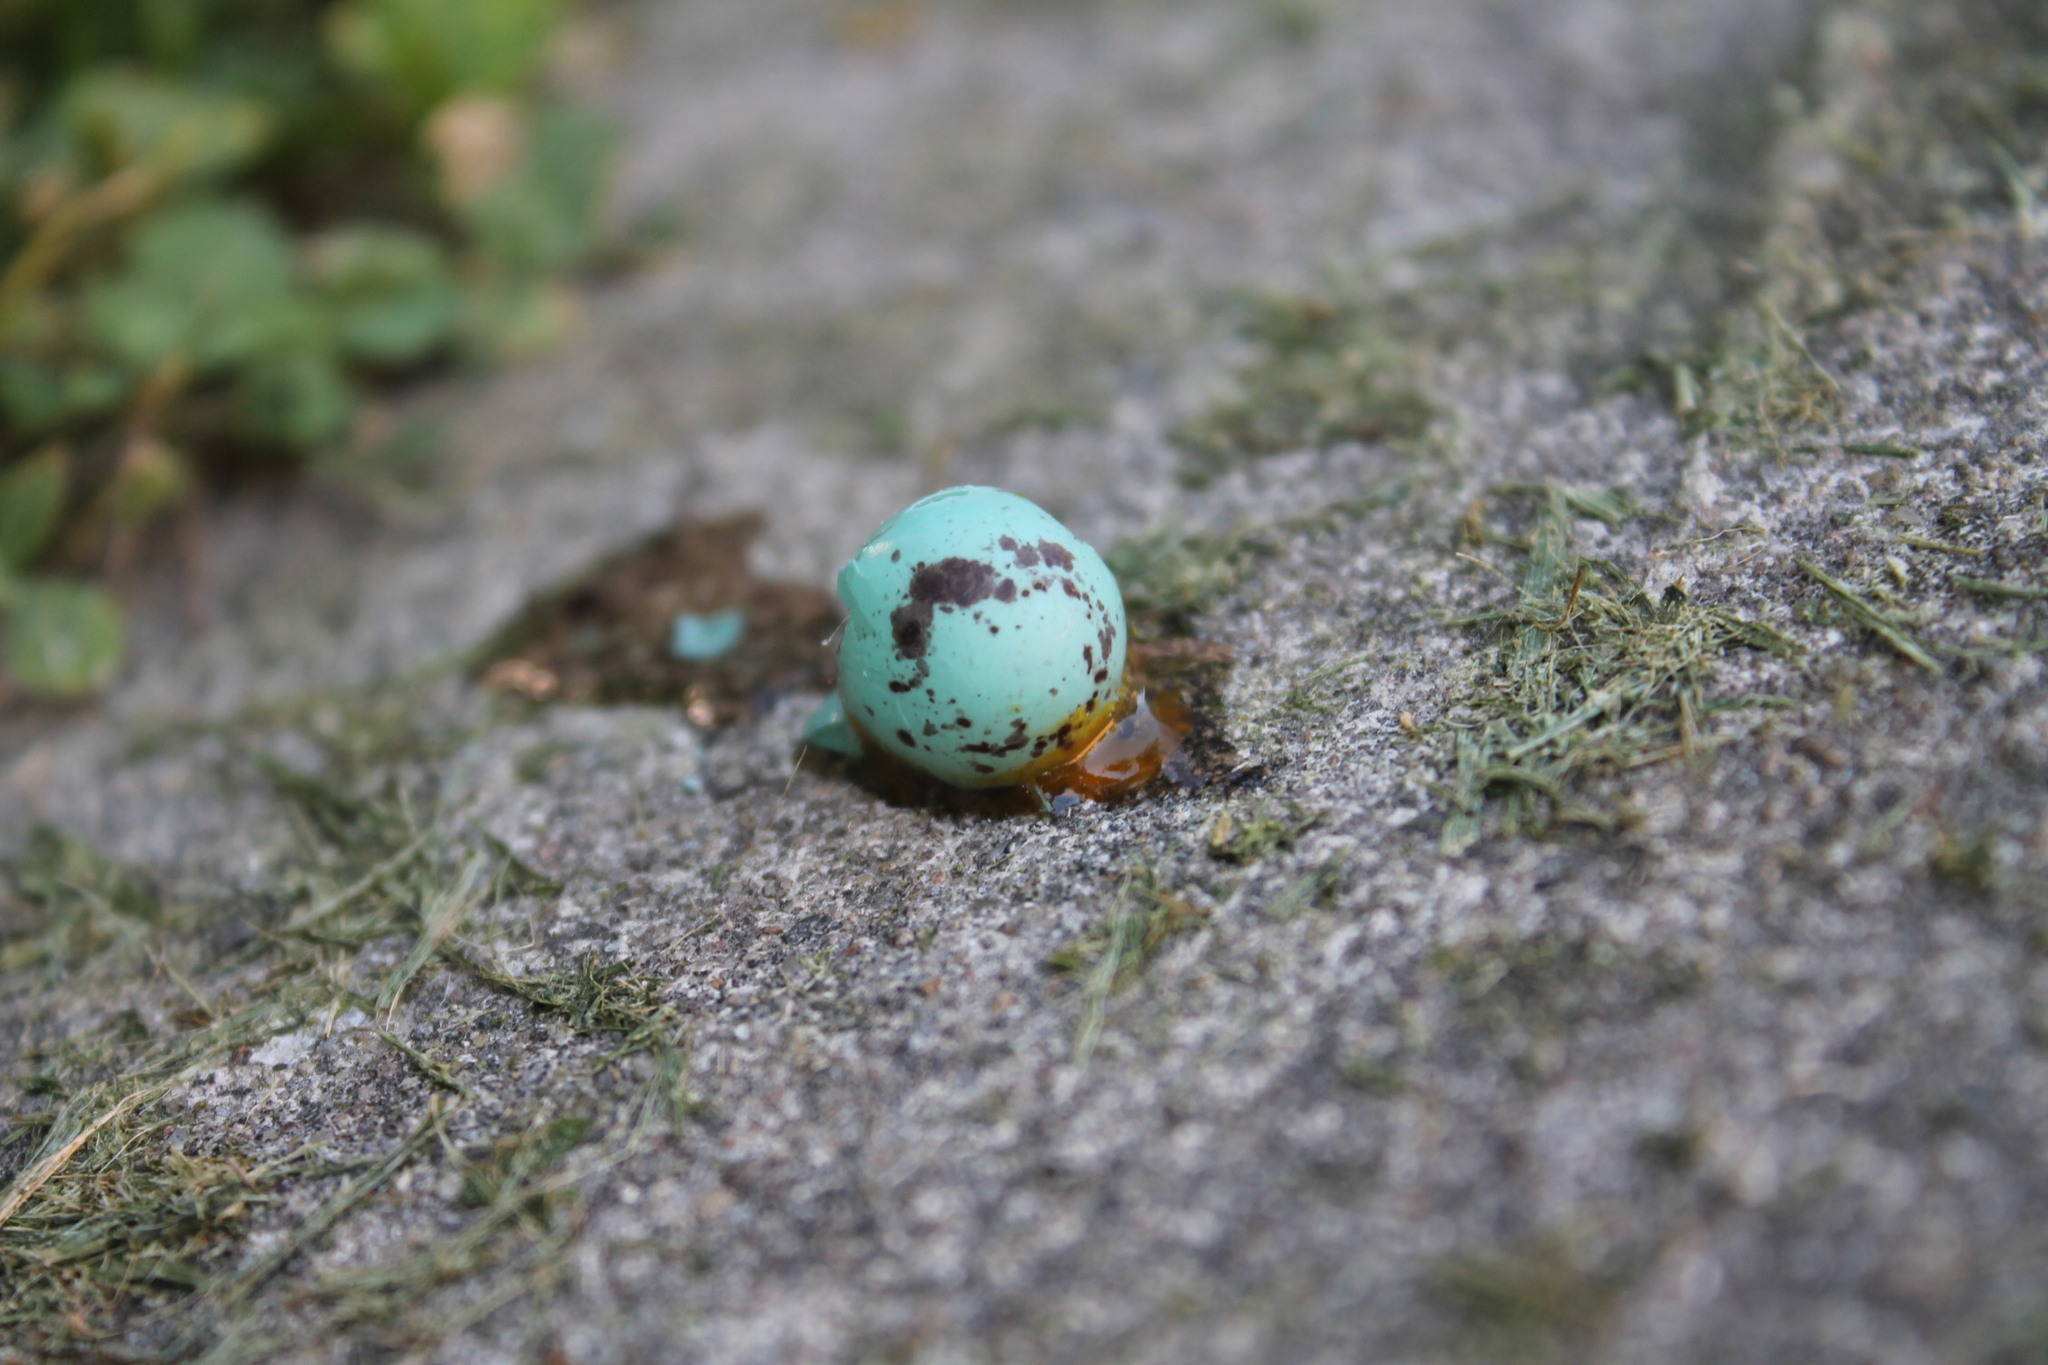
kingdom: Animalia
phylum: Chordata
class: Aves
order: Passeriformes
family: Passerellidae
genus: Spizella
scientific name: Spizella passerina
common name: Chipping sparrow
